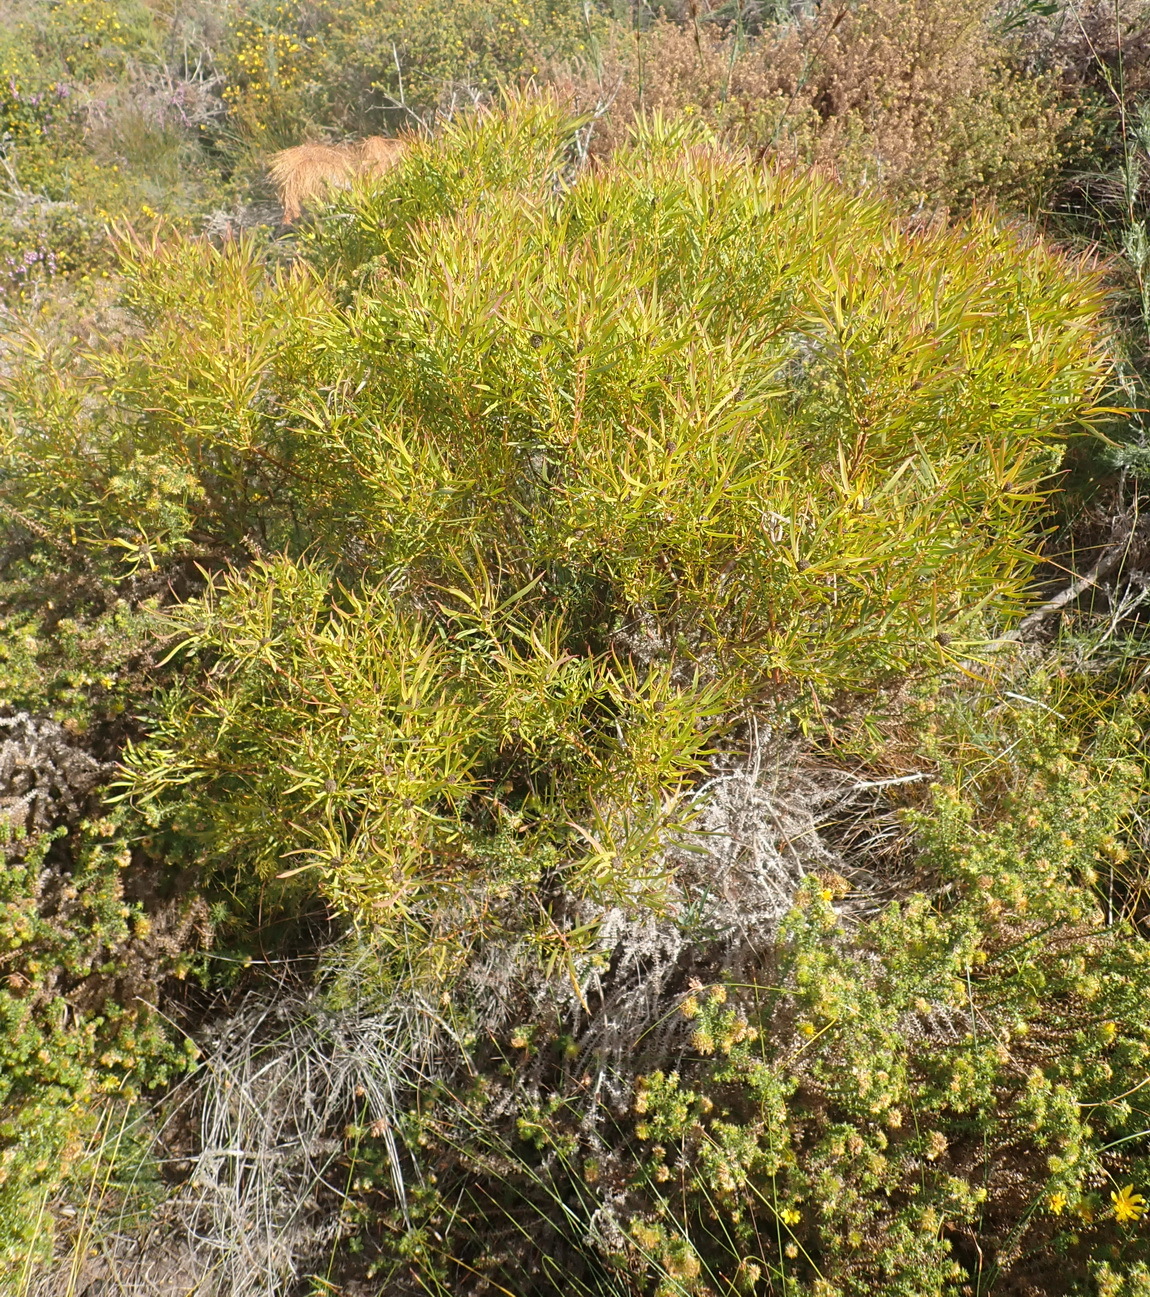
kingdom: Plantae
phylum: Tracheophyta
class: Magnoliopsida
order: Proteales
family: Proteaceae
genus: Leucadendron
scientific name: Leucadendron salignum
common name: Common sunshine conebush
